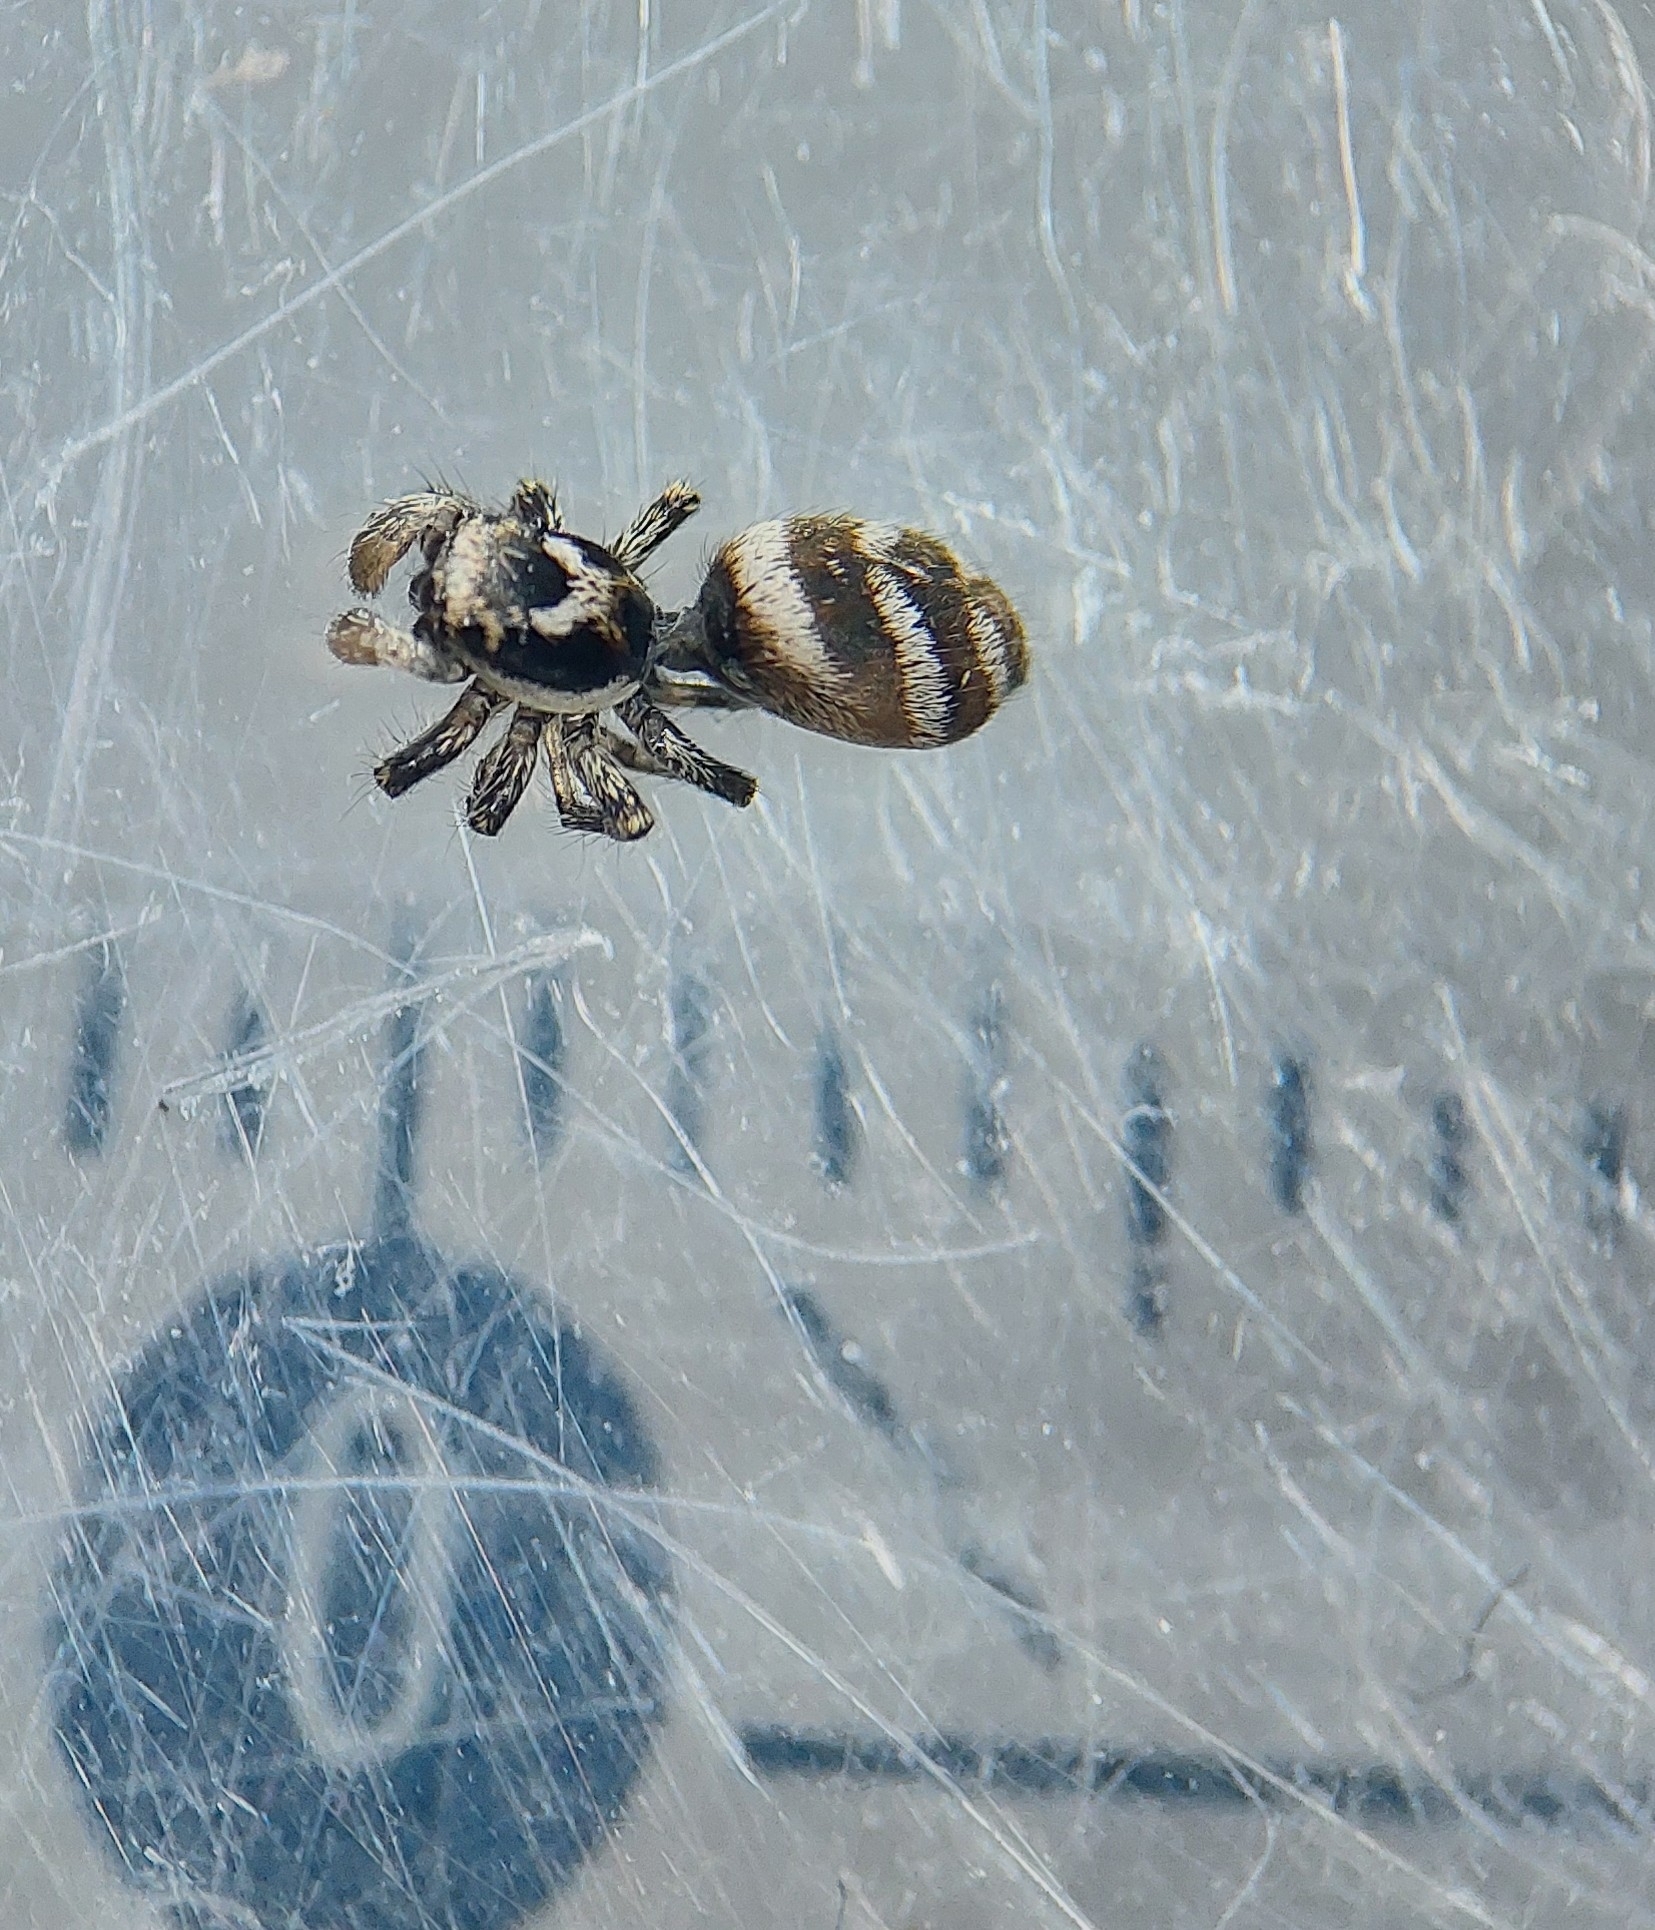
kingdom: Animalia
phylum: Arthropoda
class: Arachnida
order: Araneae
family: Salticidae
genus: Salticus
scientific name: Salticus scenicus
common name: Zebra jumper
